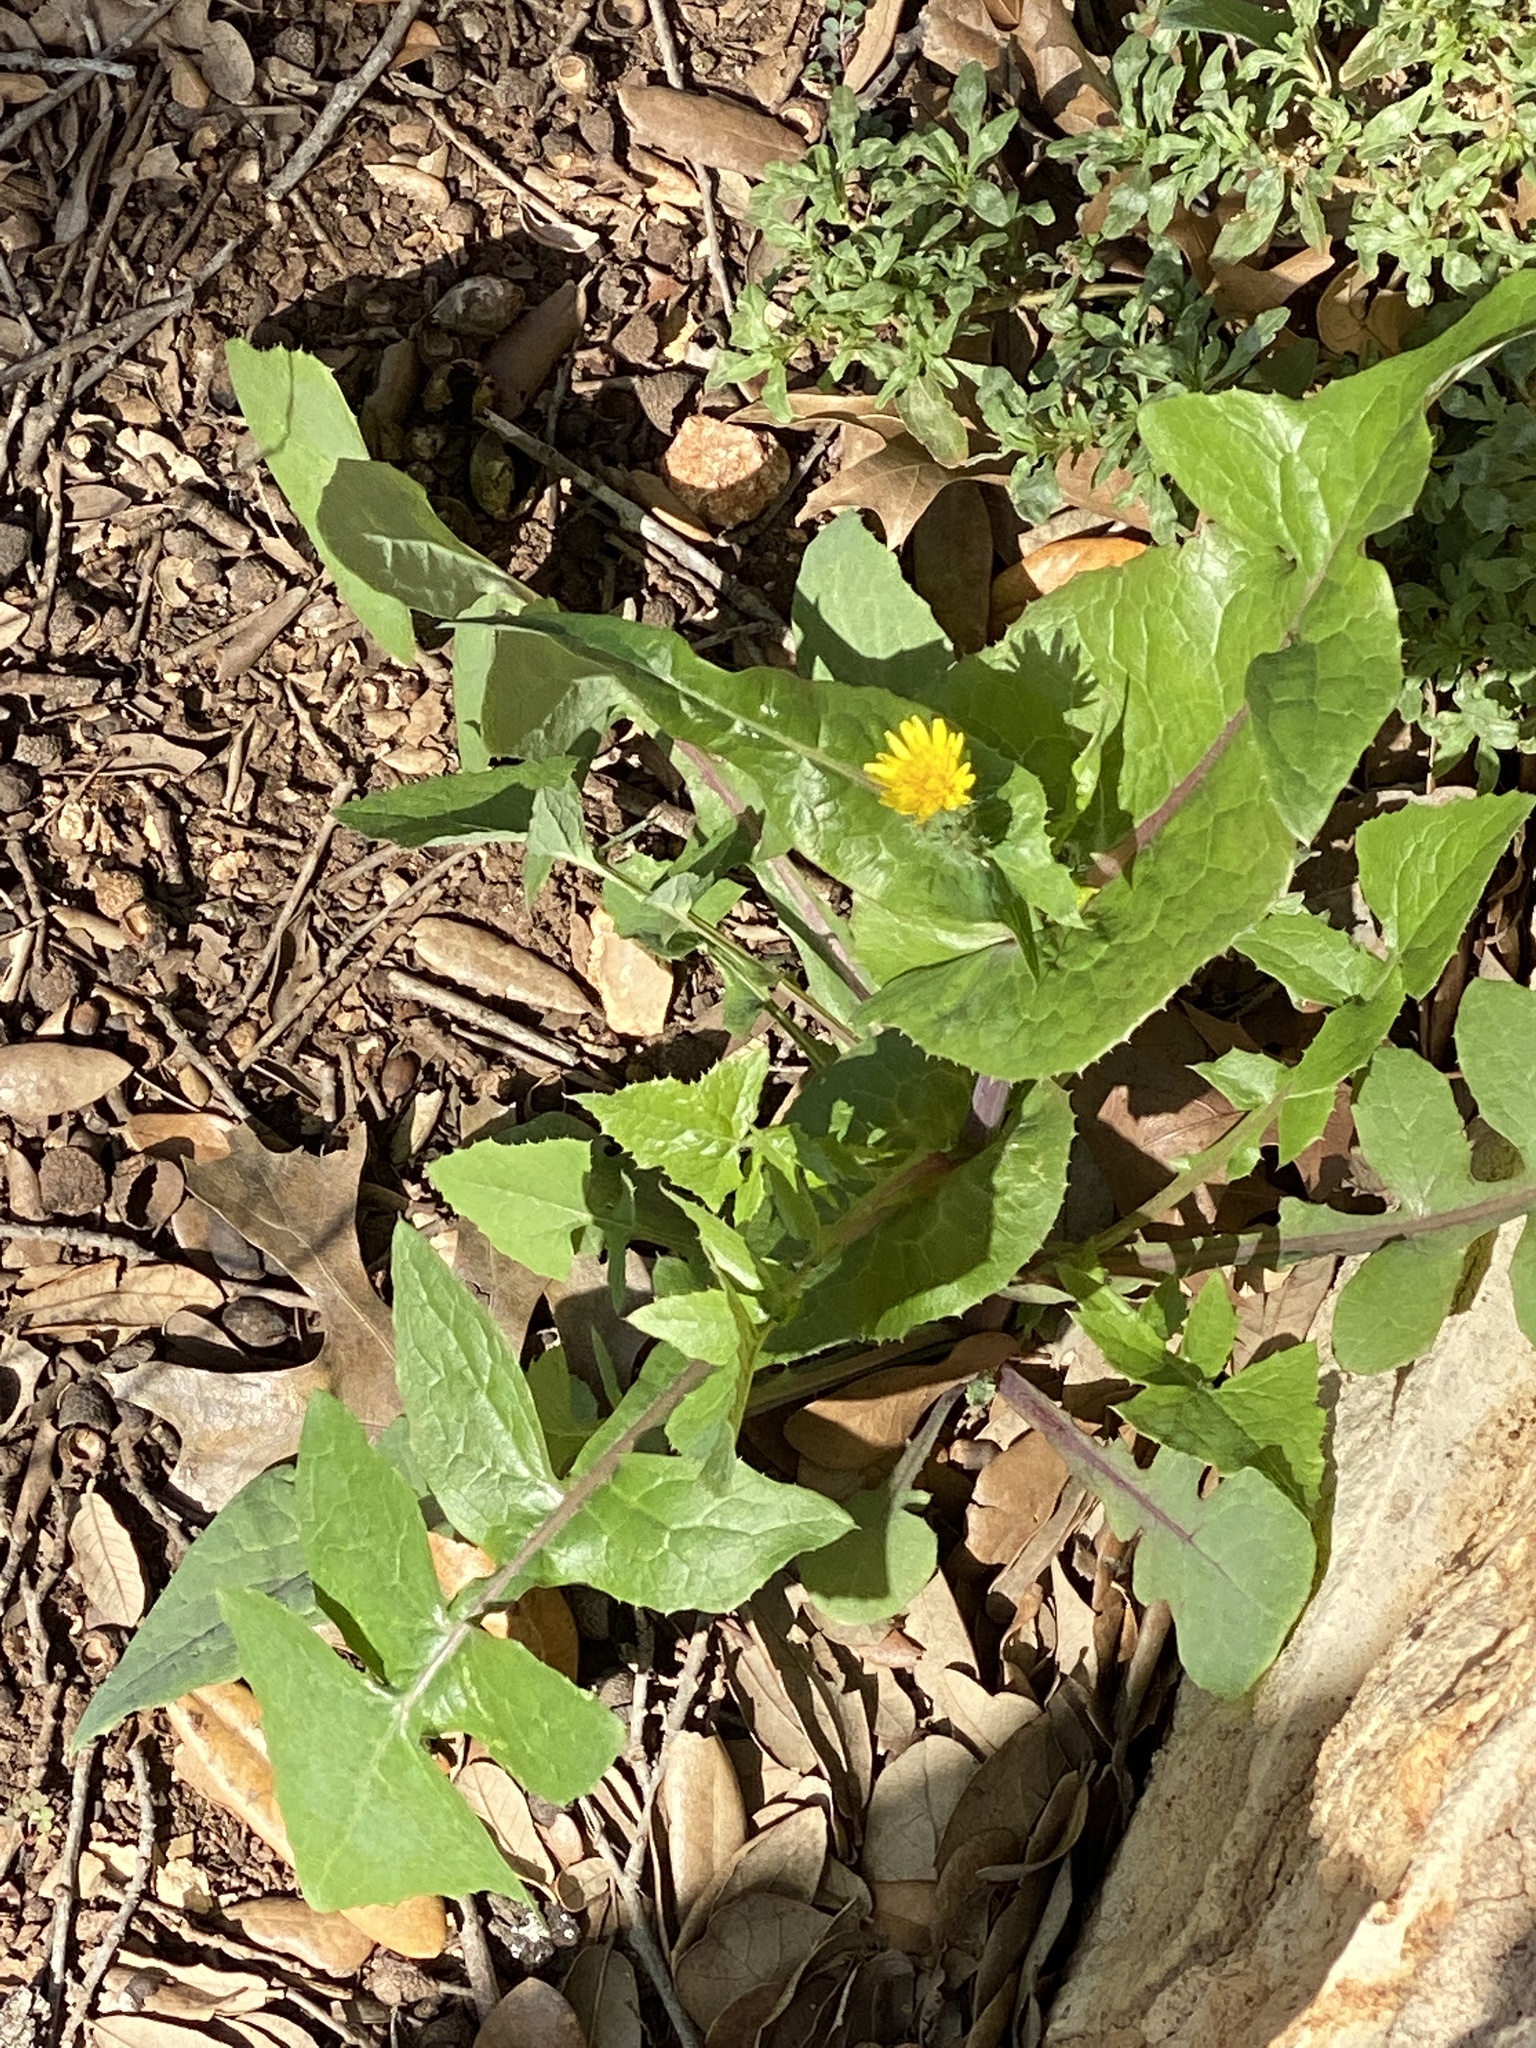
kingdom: Plantae
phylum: Tracheophyta
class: Magnoliopsida
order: Asterales
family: Asteraceae
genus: Sonchus
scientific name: Sonchus oleraceus
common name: Common sowthistle
